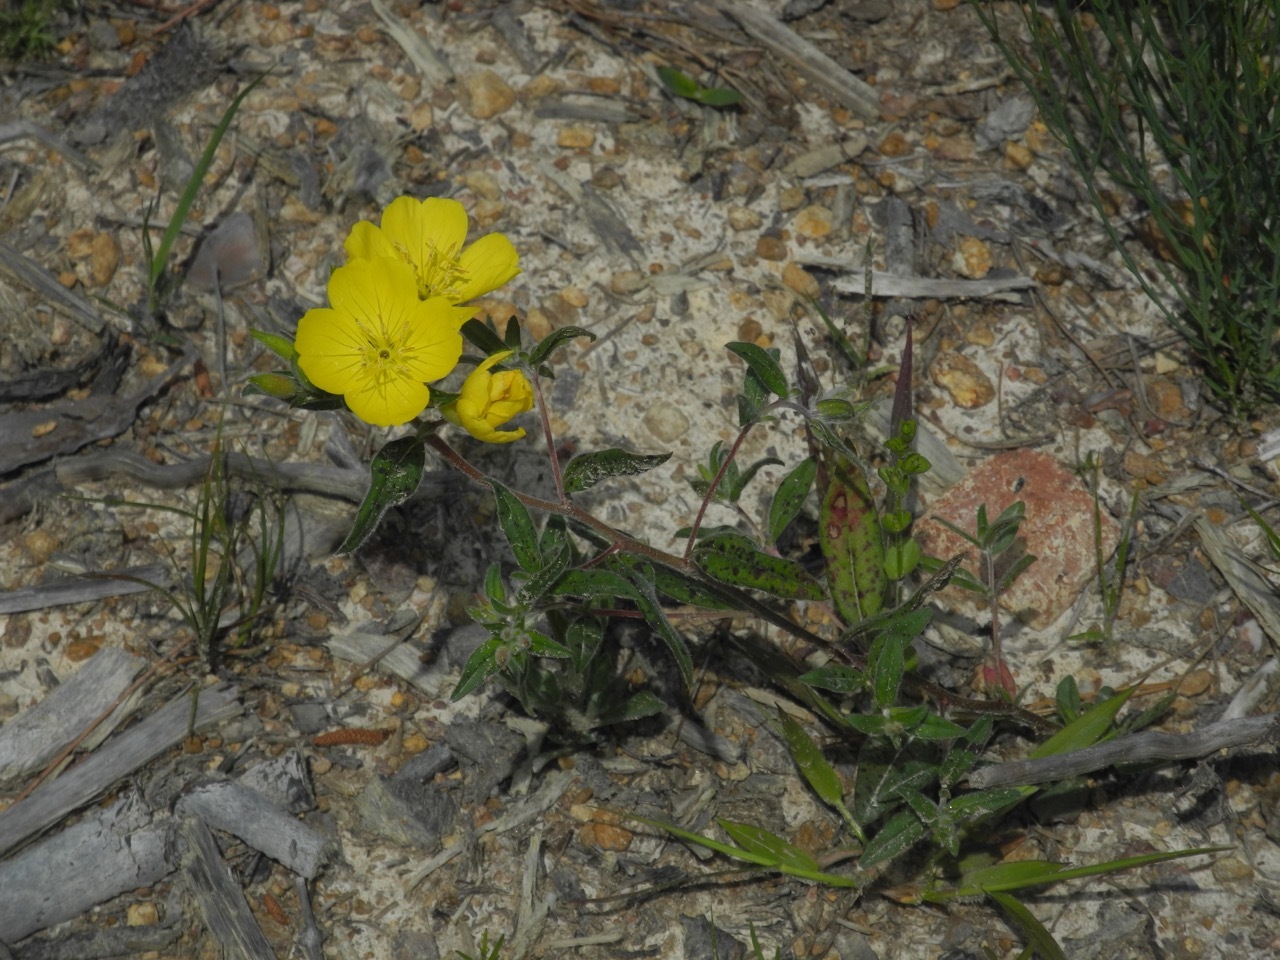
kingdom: Plantae
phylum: Tracheophyta
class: Magnoliopsida
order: Myrtales
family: Onagraceae
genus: Oenothera
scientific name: Oenothera fruticosa
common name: Southern sundrops
